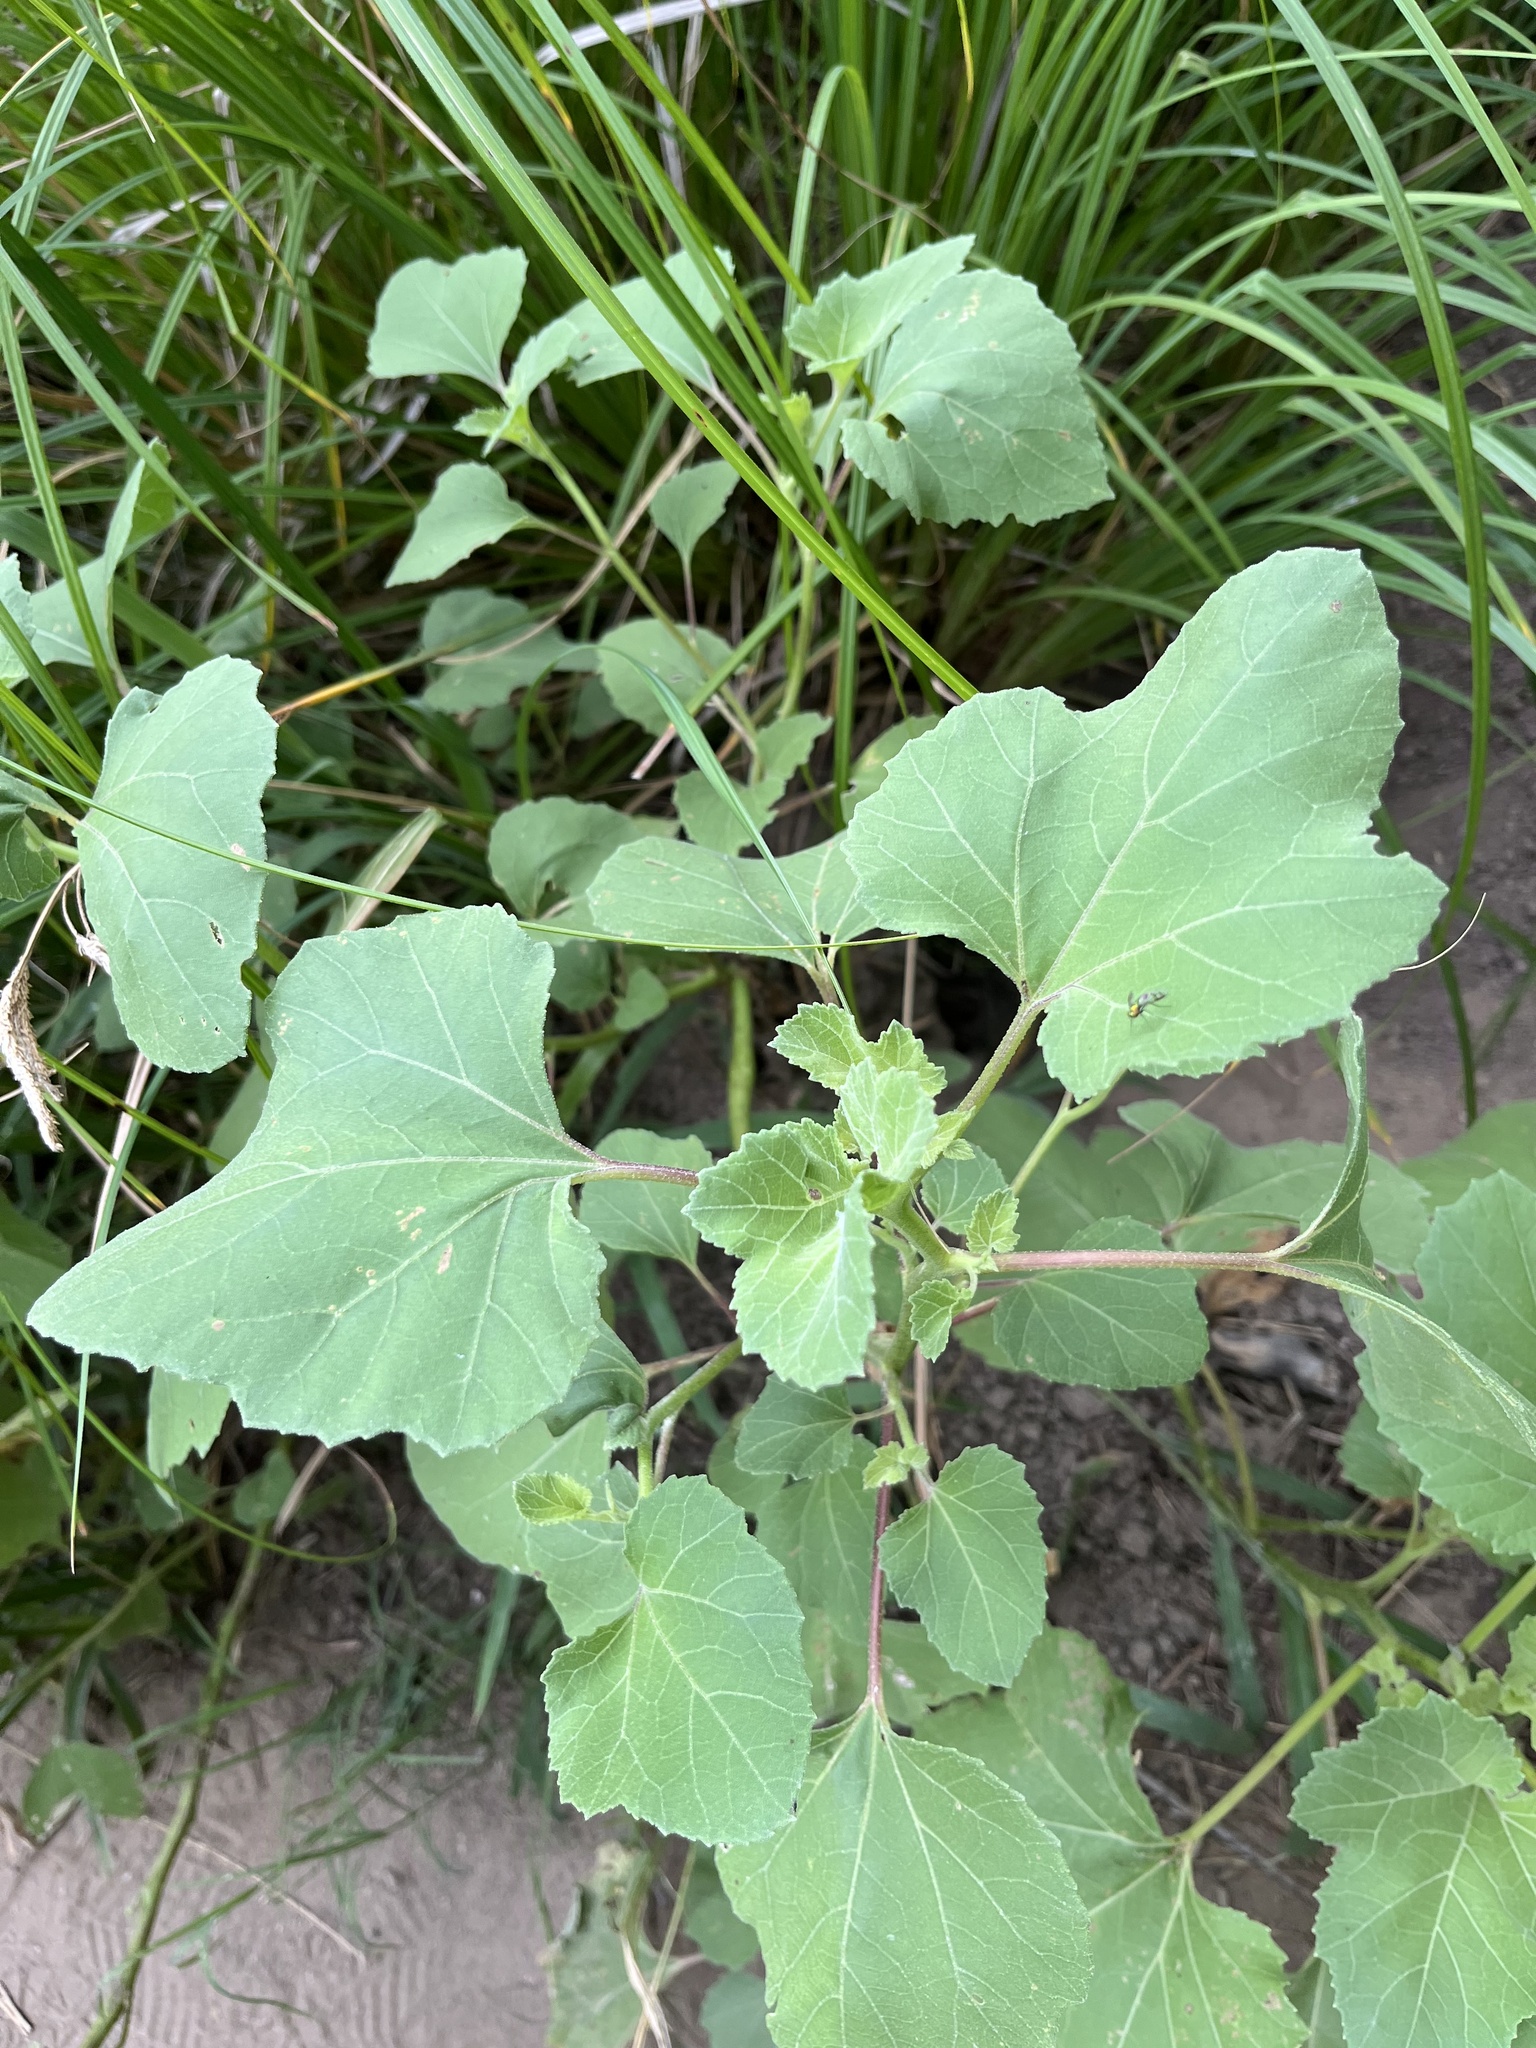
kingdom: Plantae
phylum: Tracheophyta
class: Magnoliopsida
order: Asterales
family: Asteraceae
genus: Xanthium
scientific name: Xanthium strumarium
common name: Rough cocklebur
